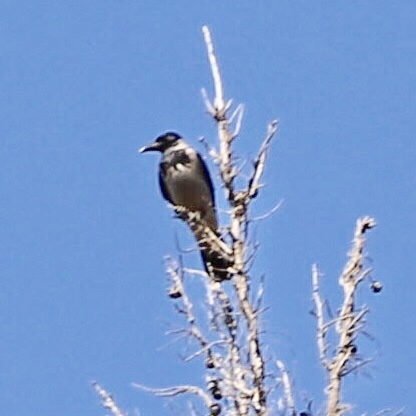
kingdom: Animalia
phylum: Chordata
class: Aves
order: Passeriformes
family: Corvidae
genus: Corvus
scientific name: Corvus cornix
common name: Hooded crow
